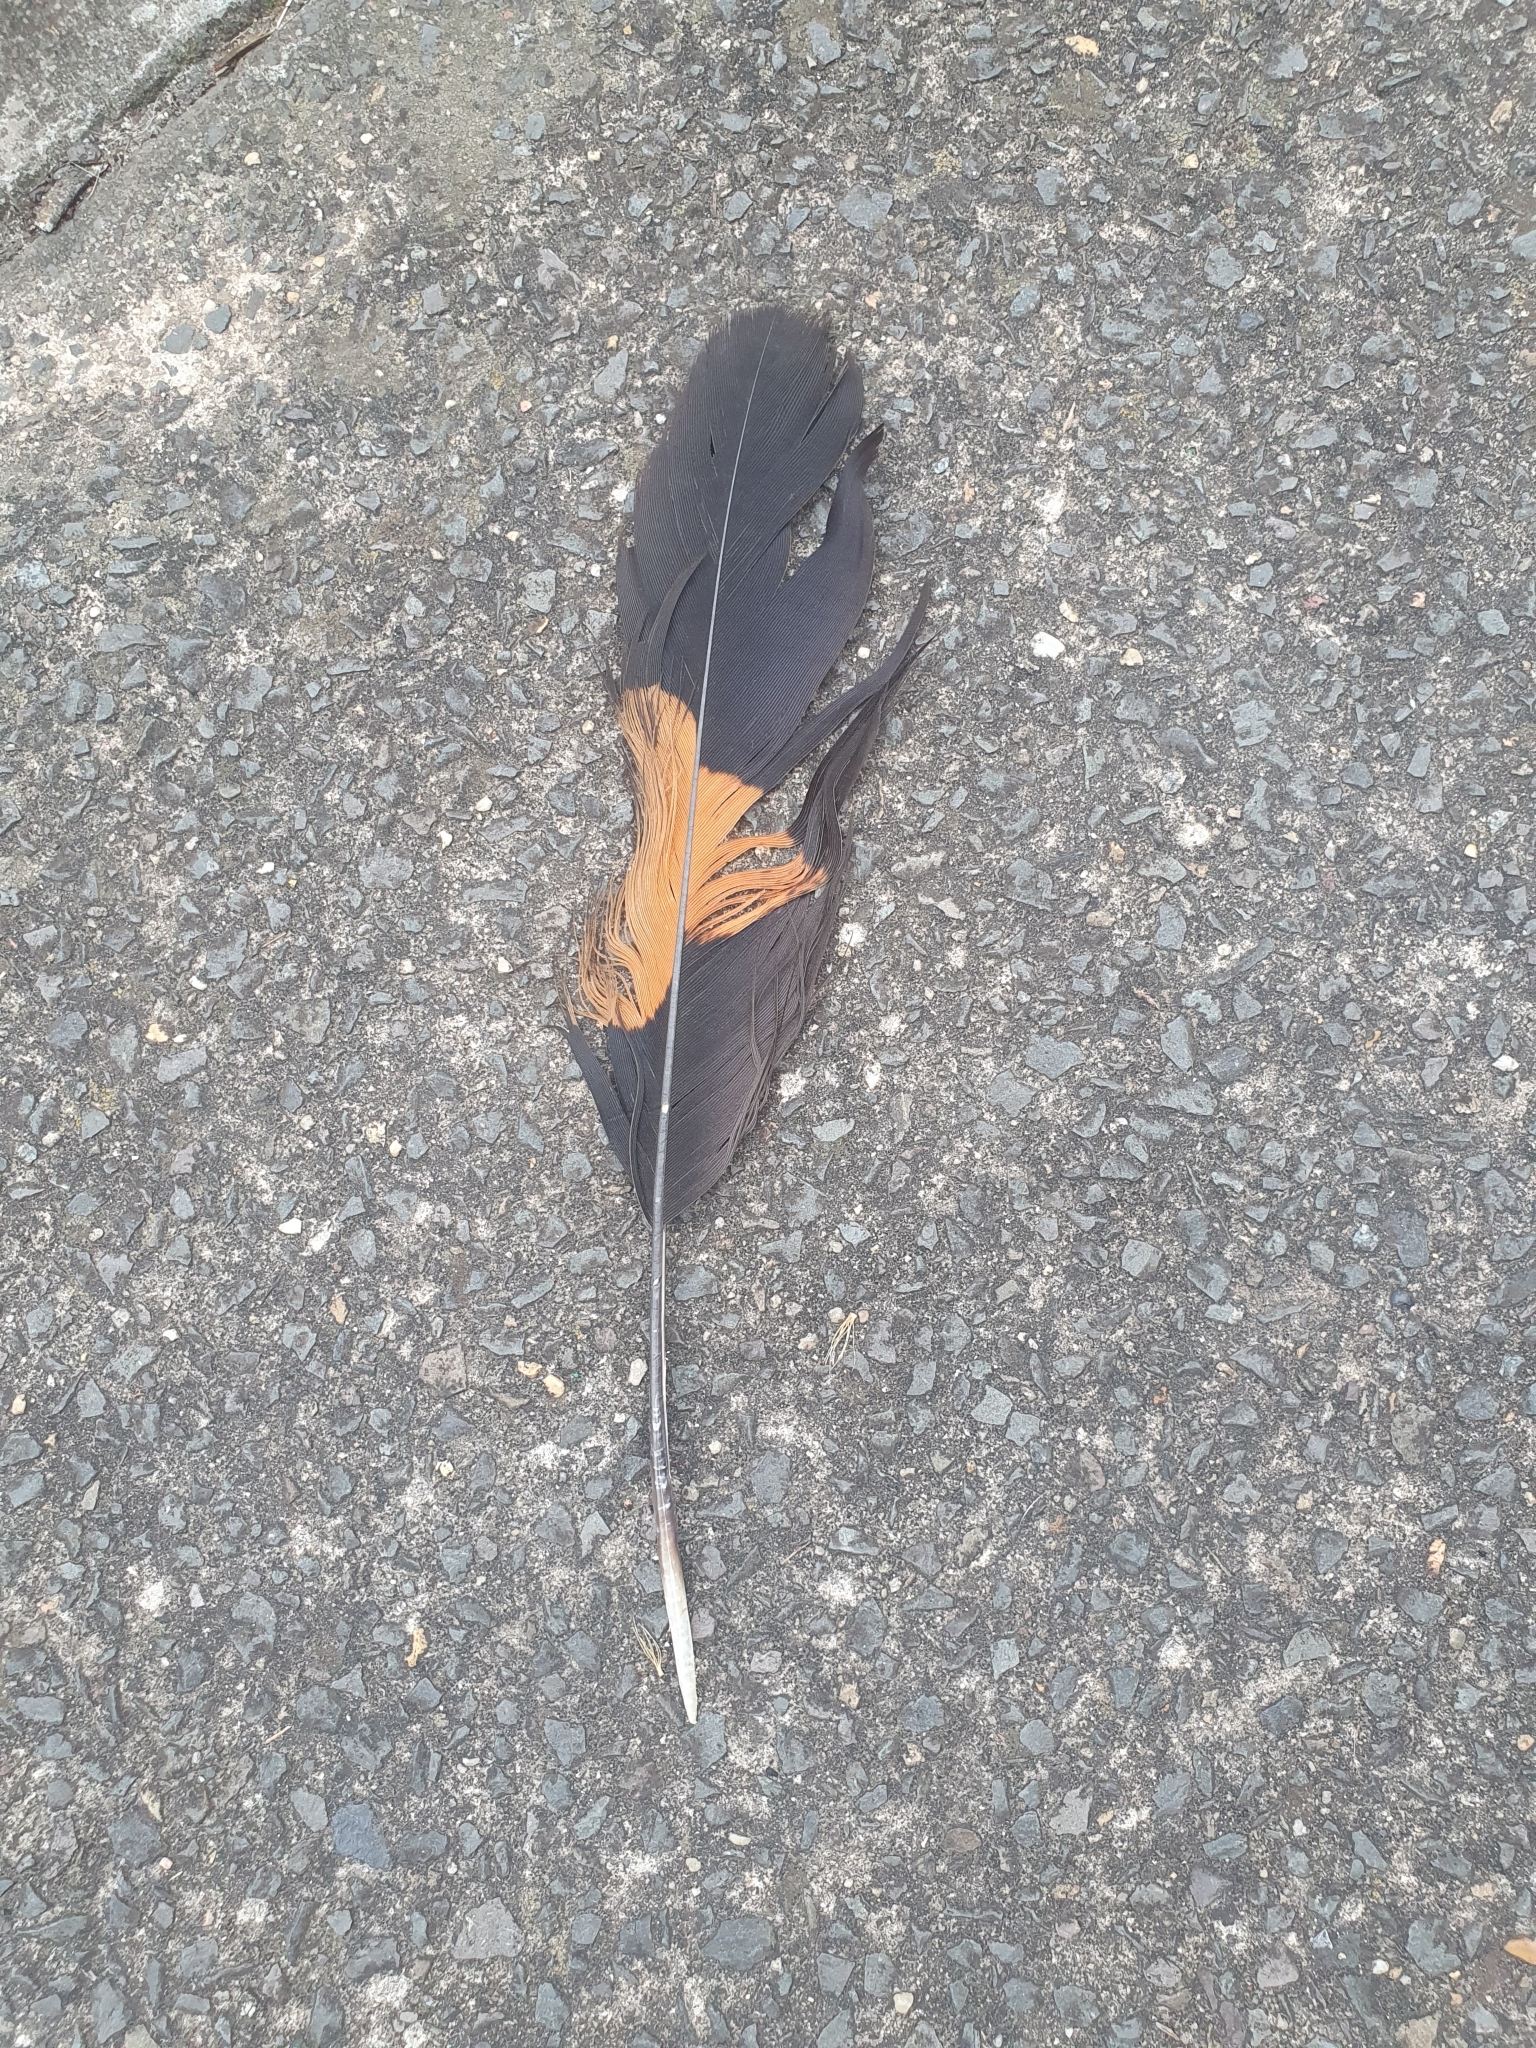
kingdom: Animalia
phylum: Chordata
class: Aves
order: Psittaciformes
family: Psittacidae
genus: Calyptorhynchus
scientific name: Calyptorhynchus lathami
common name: Glossy black cockatoo
